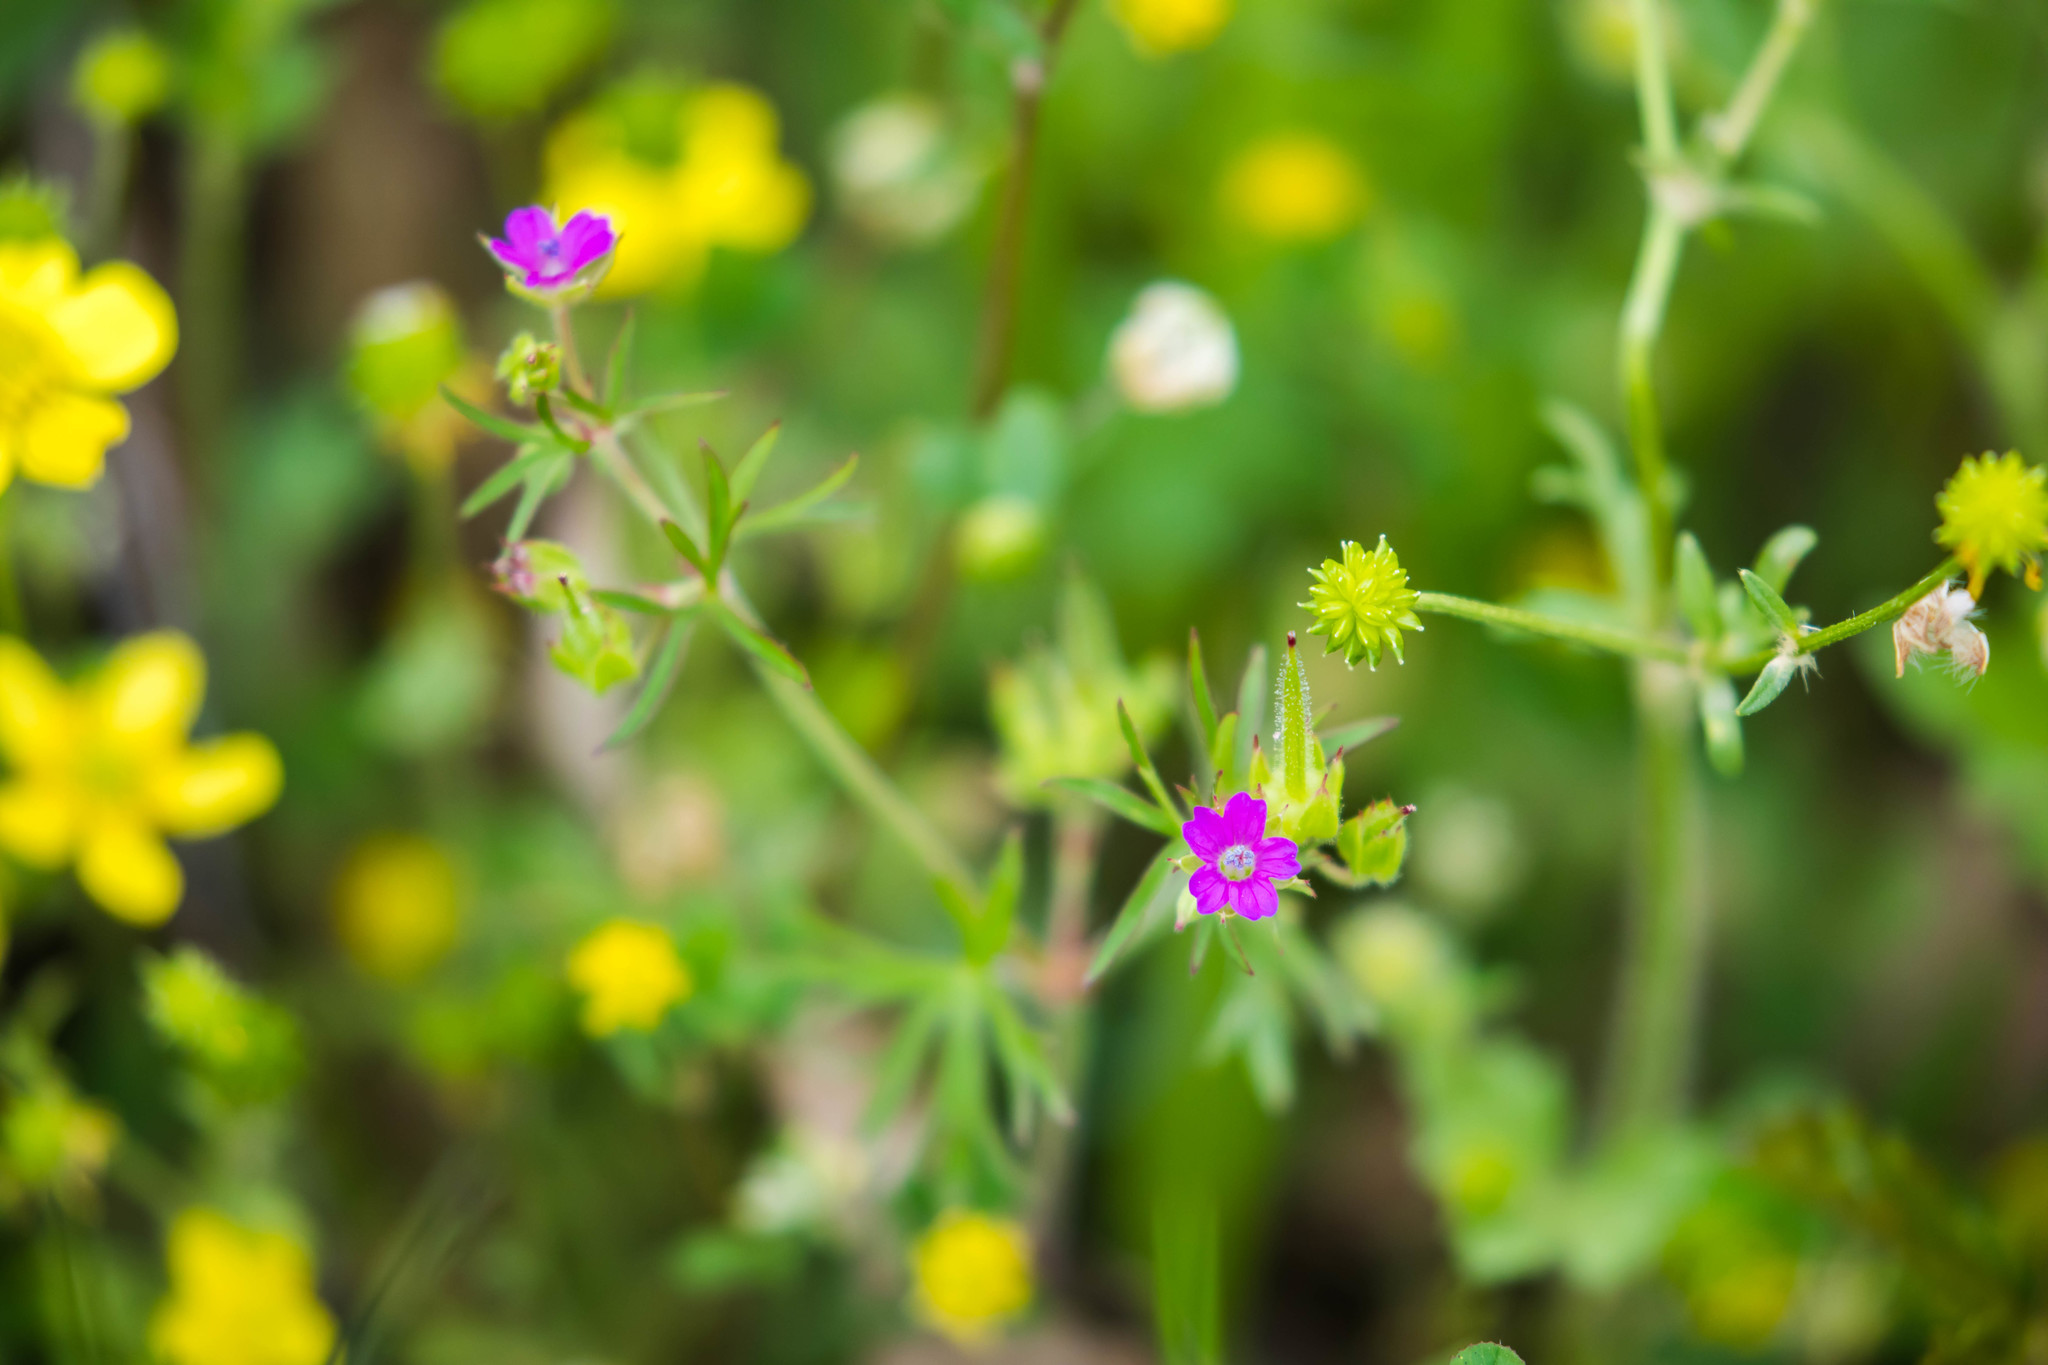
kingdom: Plantae
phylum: Tracheophyta
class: Magnoliopsida
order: Geraniales
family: Geraniaceae
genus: Geranium
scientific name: Geranium dissectum
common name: Cut-leaved crane's-bill
